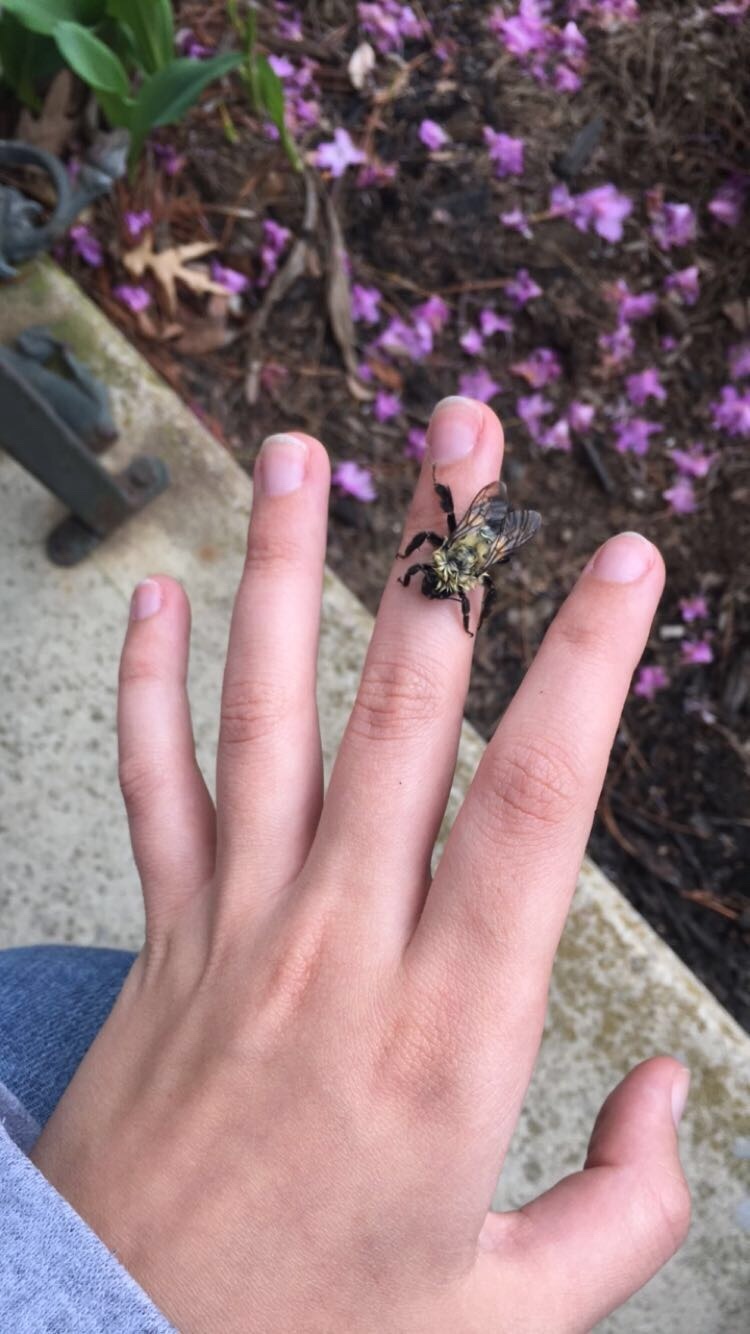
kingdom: Animalia
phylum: Arthropoda
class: Insecta
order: Hymenoptera
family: Apidae
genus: Bombus
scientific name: Bombus impatiens
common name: Common eastern bumble bee
